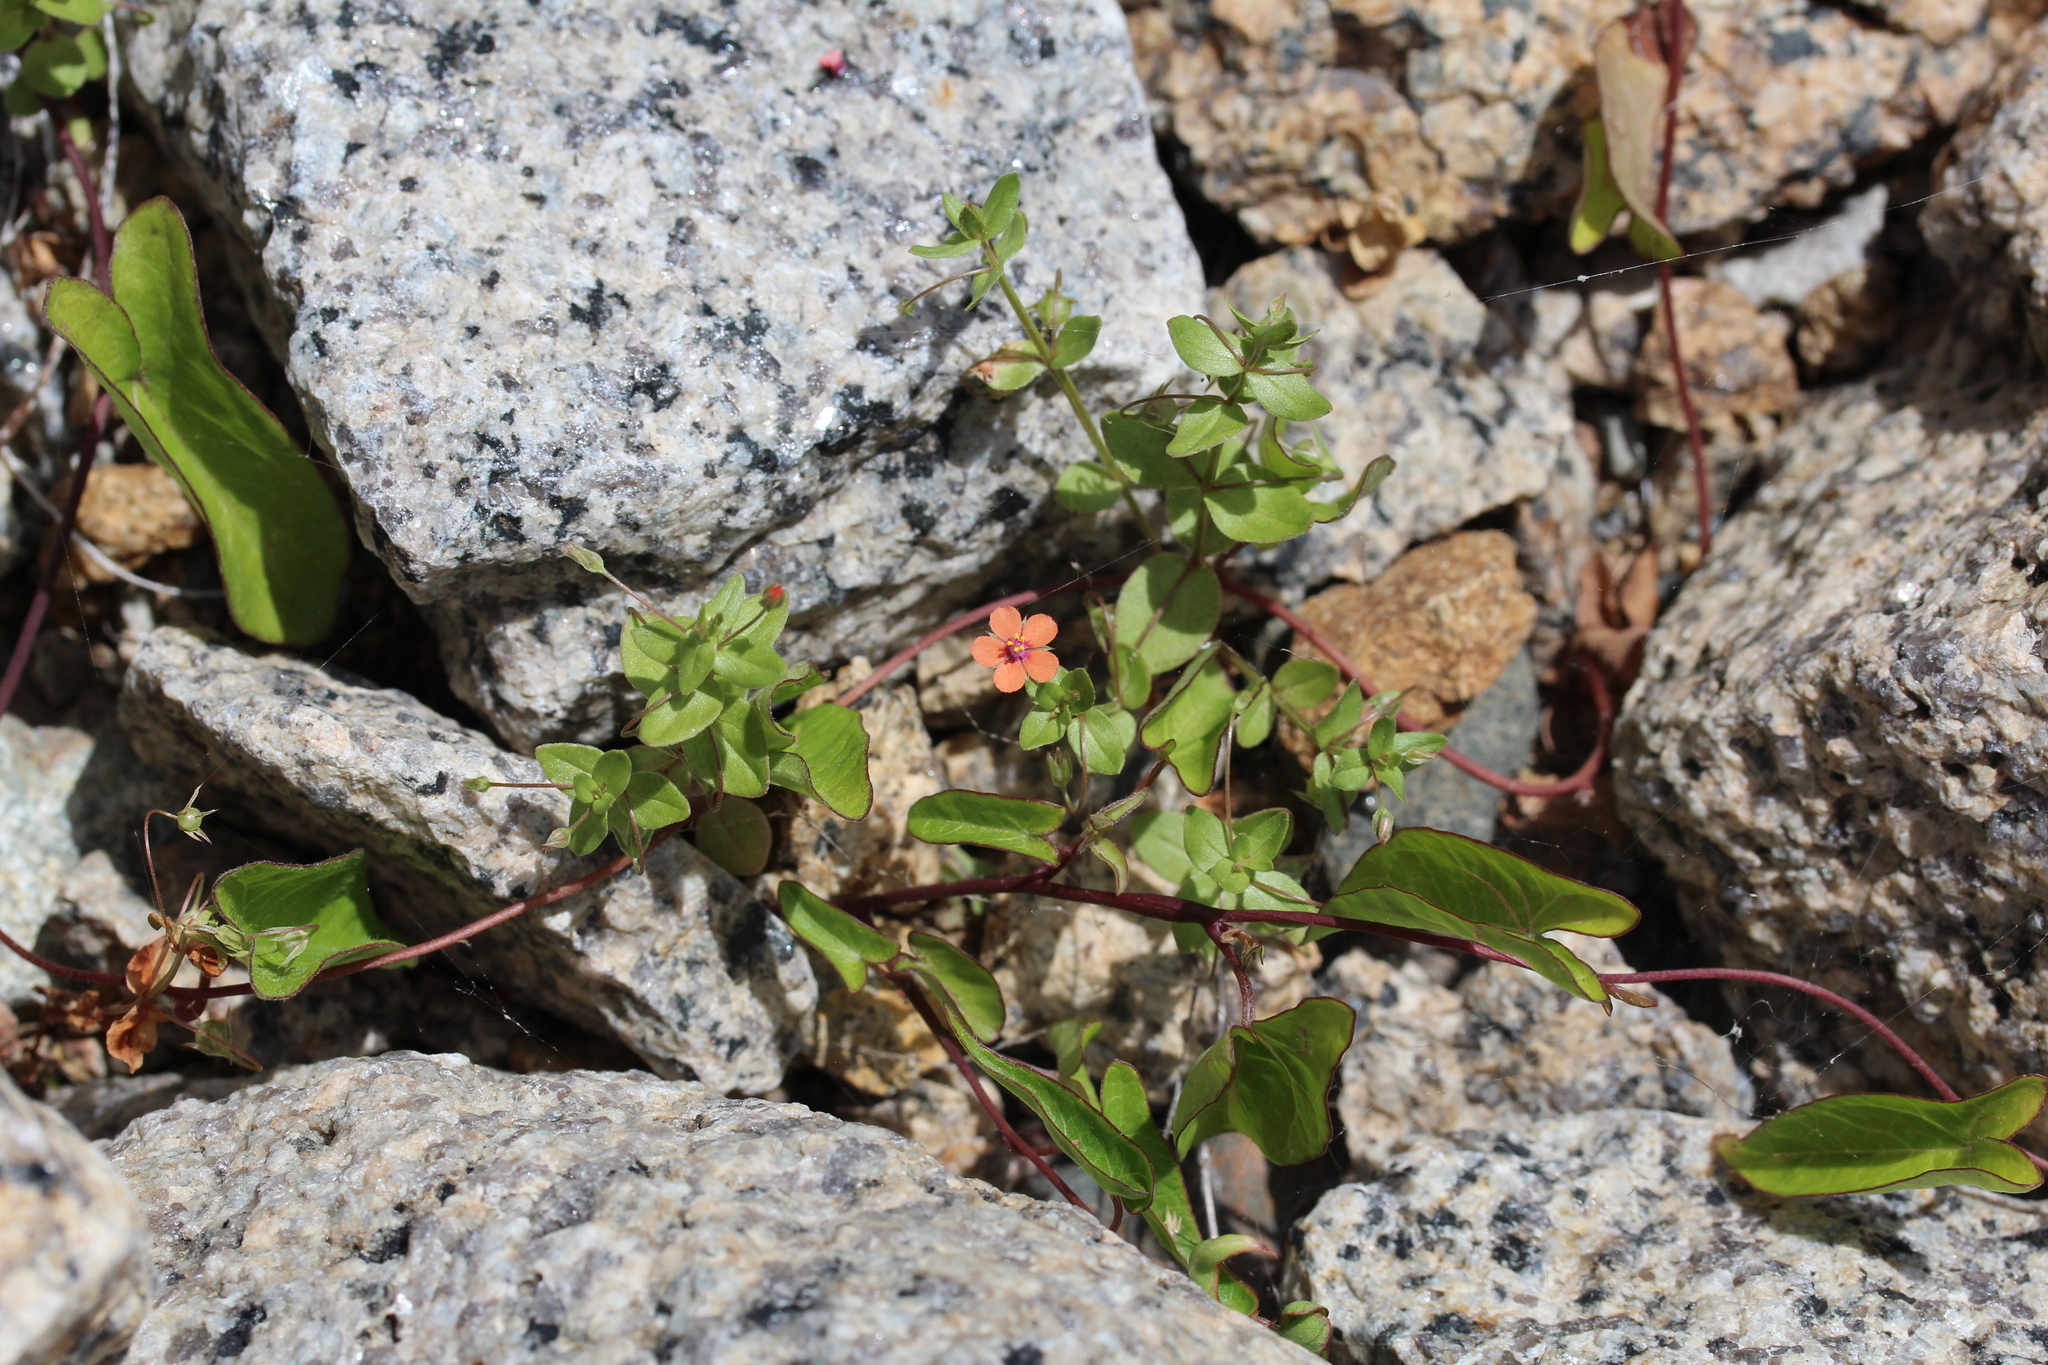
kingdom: Plantae
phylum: Tracheophyta
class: Magnoliopsida
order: Ericales
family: Primulaceae
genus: Lysimachia
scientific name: Lysimachia arvensis
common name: Scarlet pimpernel
